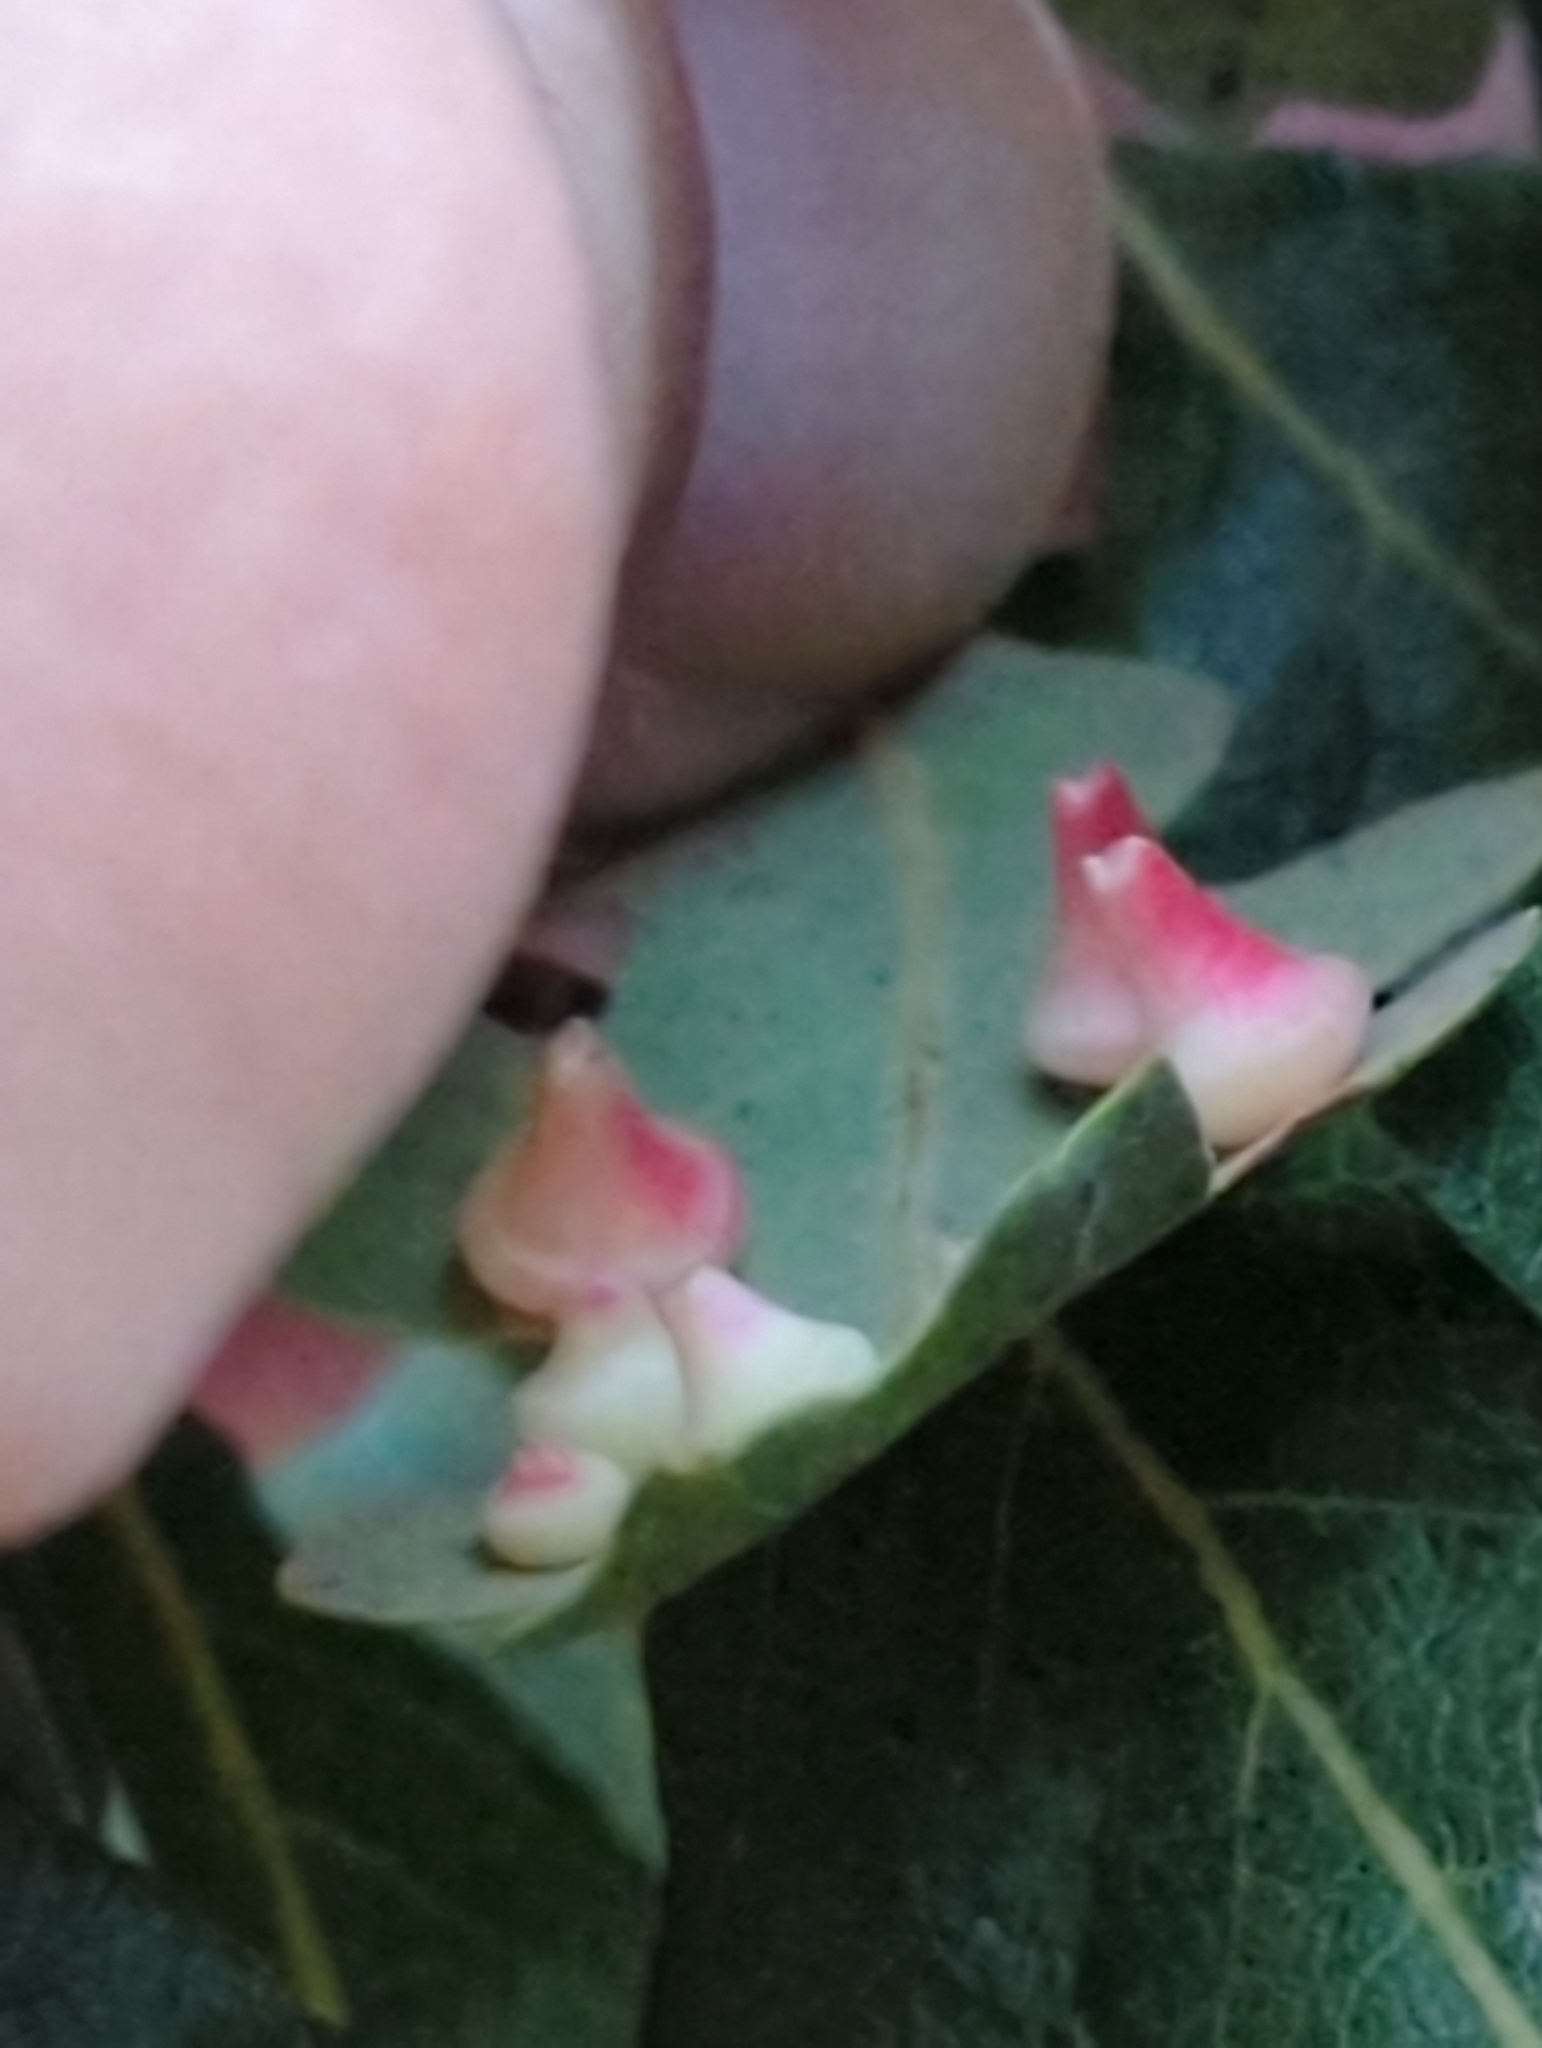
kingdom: Animalia
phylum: Arthropoda
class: Insecta
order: Hymenoptera
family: Cynipidae
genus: Andricus
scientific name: Andricus
